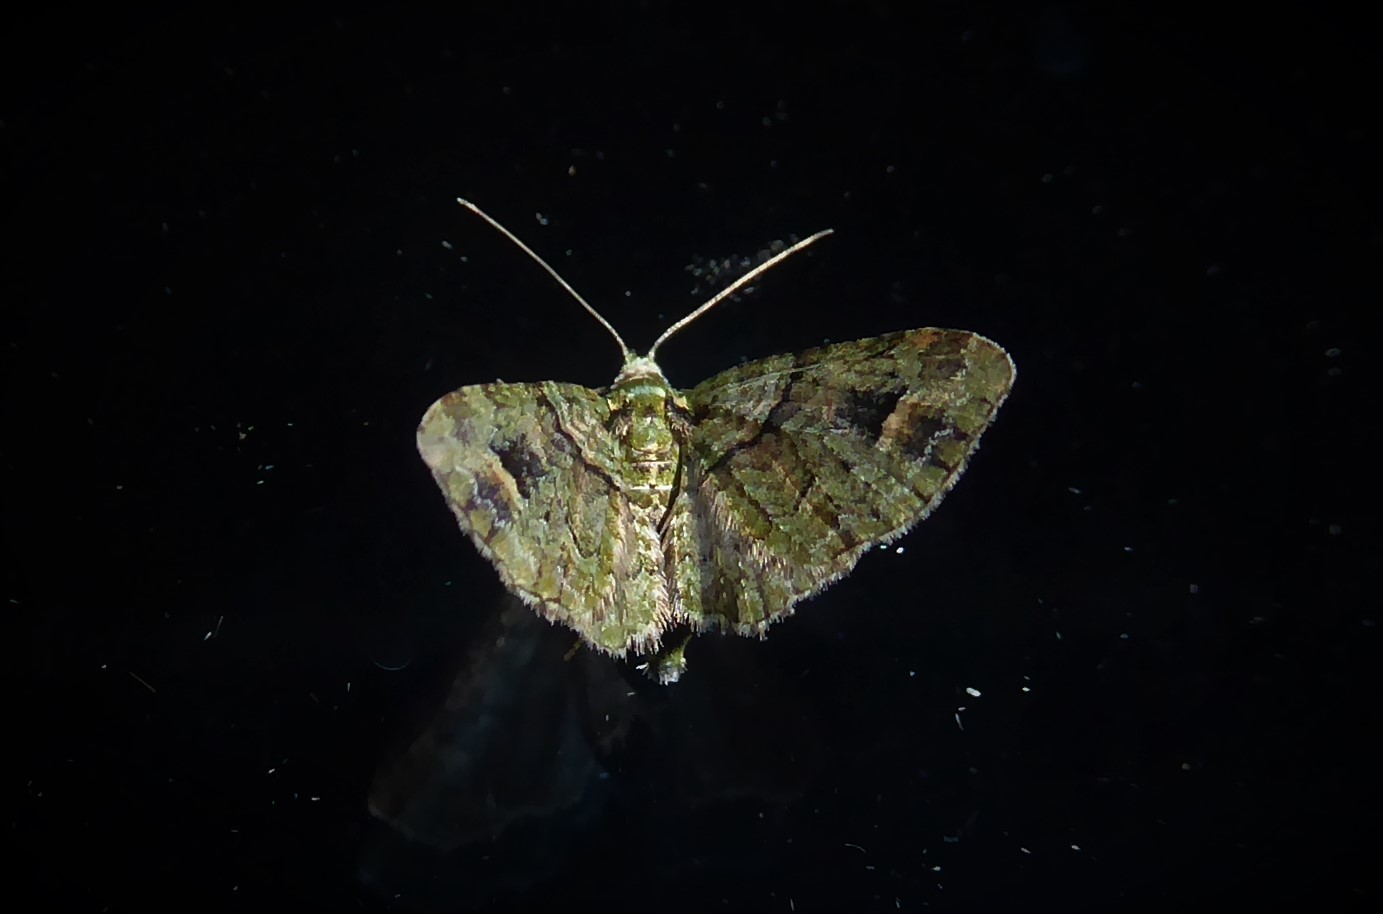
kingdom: Animalia
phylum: Arthropoda
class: Insecta
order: Lepidoptera
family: Geometridae
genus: Idaea
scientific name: Idaea mutanda
